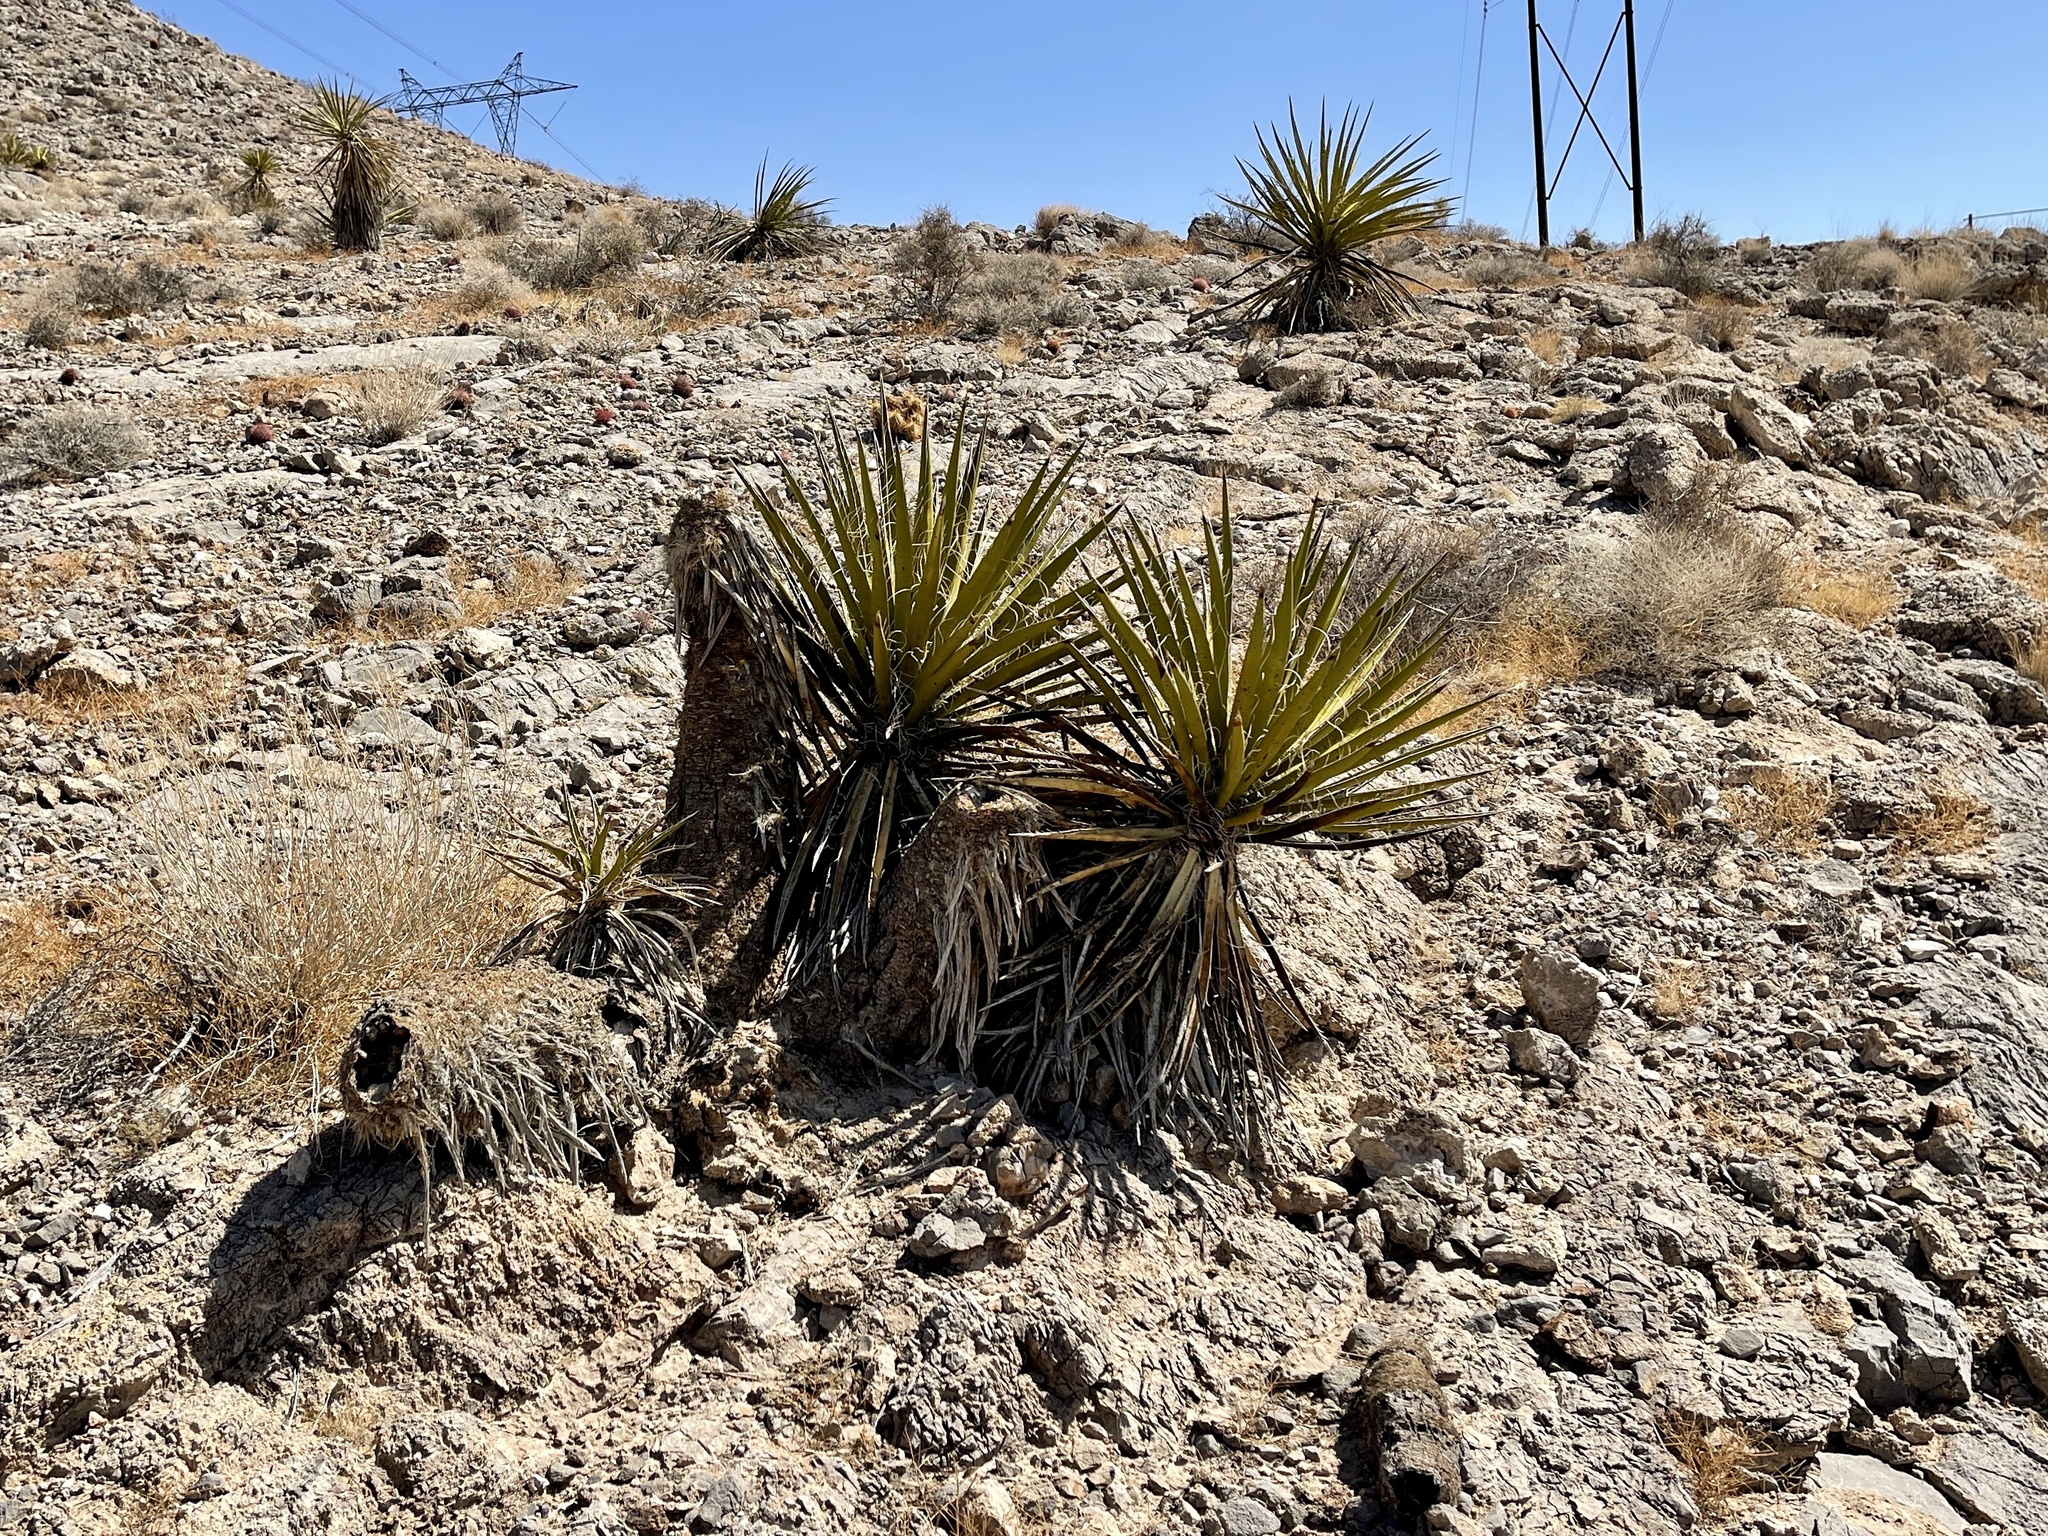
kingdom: Plantae
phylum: Tracheophyta
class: Liliopsida
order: Asparagales
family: Asparagaceae
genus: Yucca
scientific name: Yucca schidigera
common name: Mojave yucca
